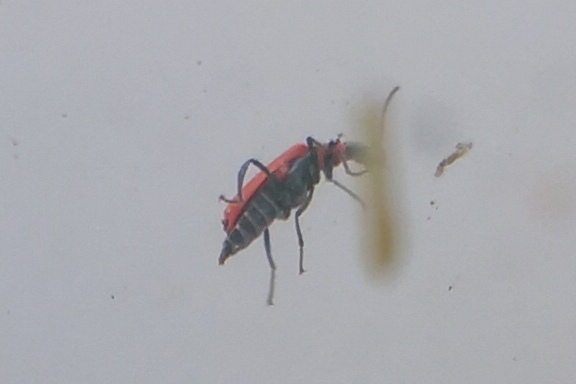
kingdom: Animalia
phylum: Arthropoda
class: Insecta
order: Coleoptera
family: Melyridae
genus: Anthocomus
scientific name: Anthocomus rufus
